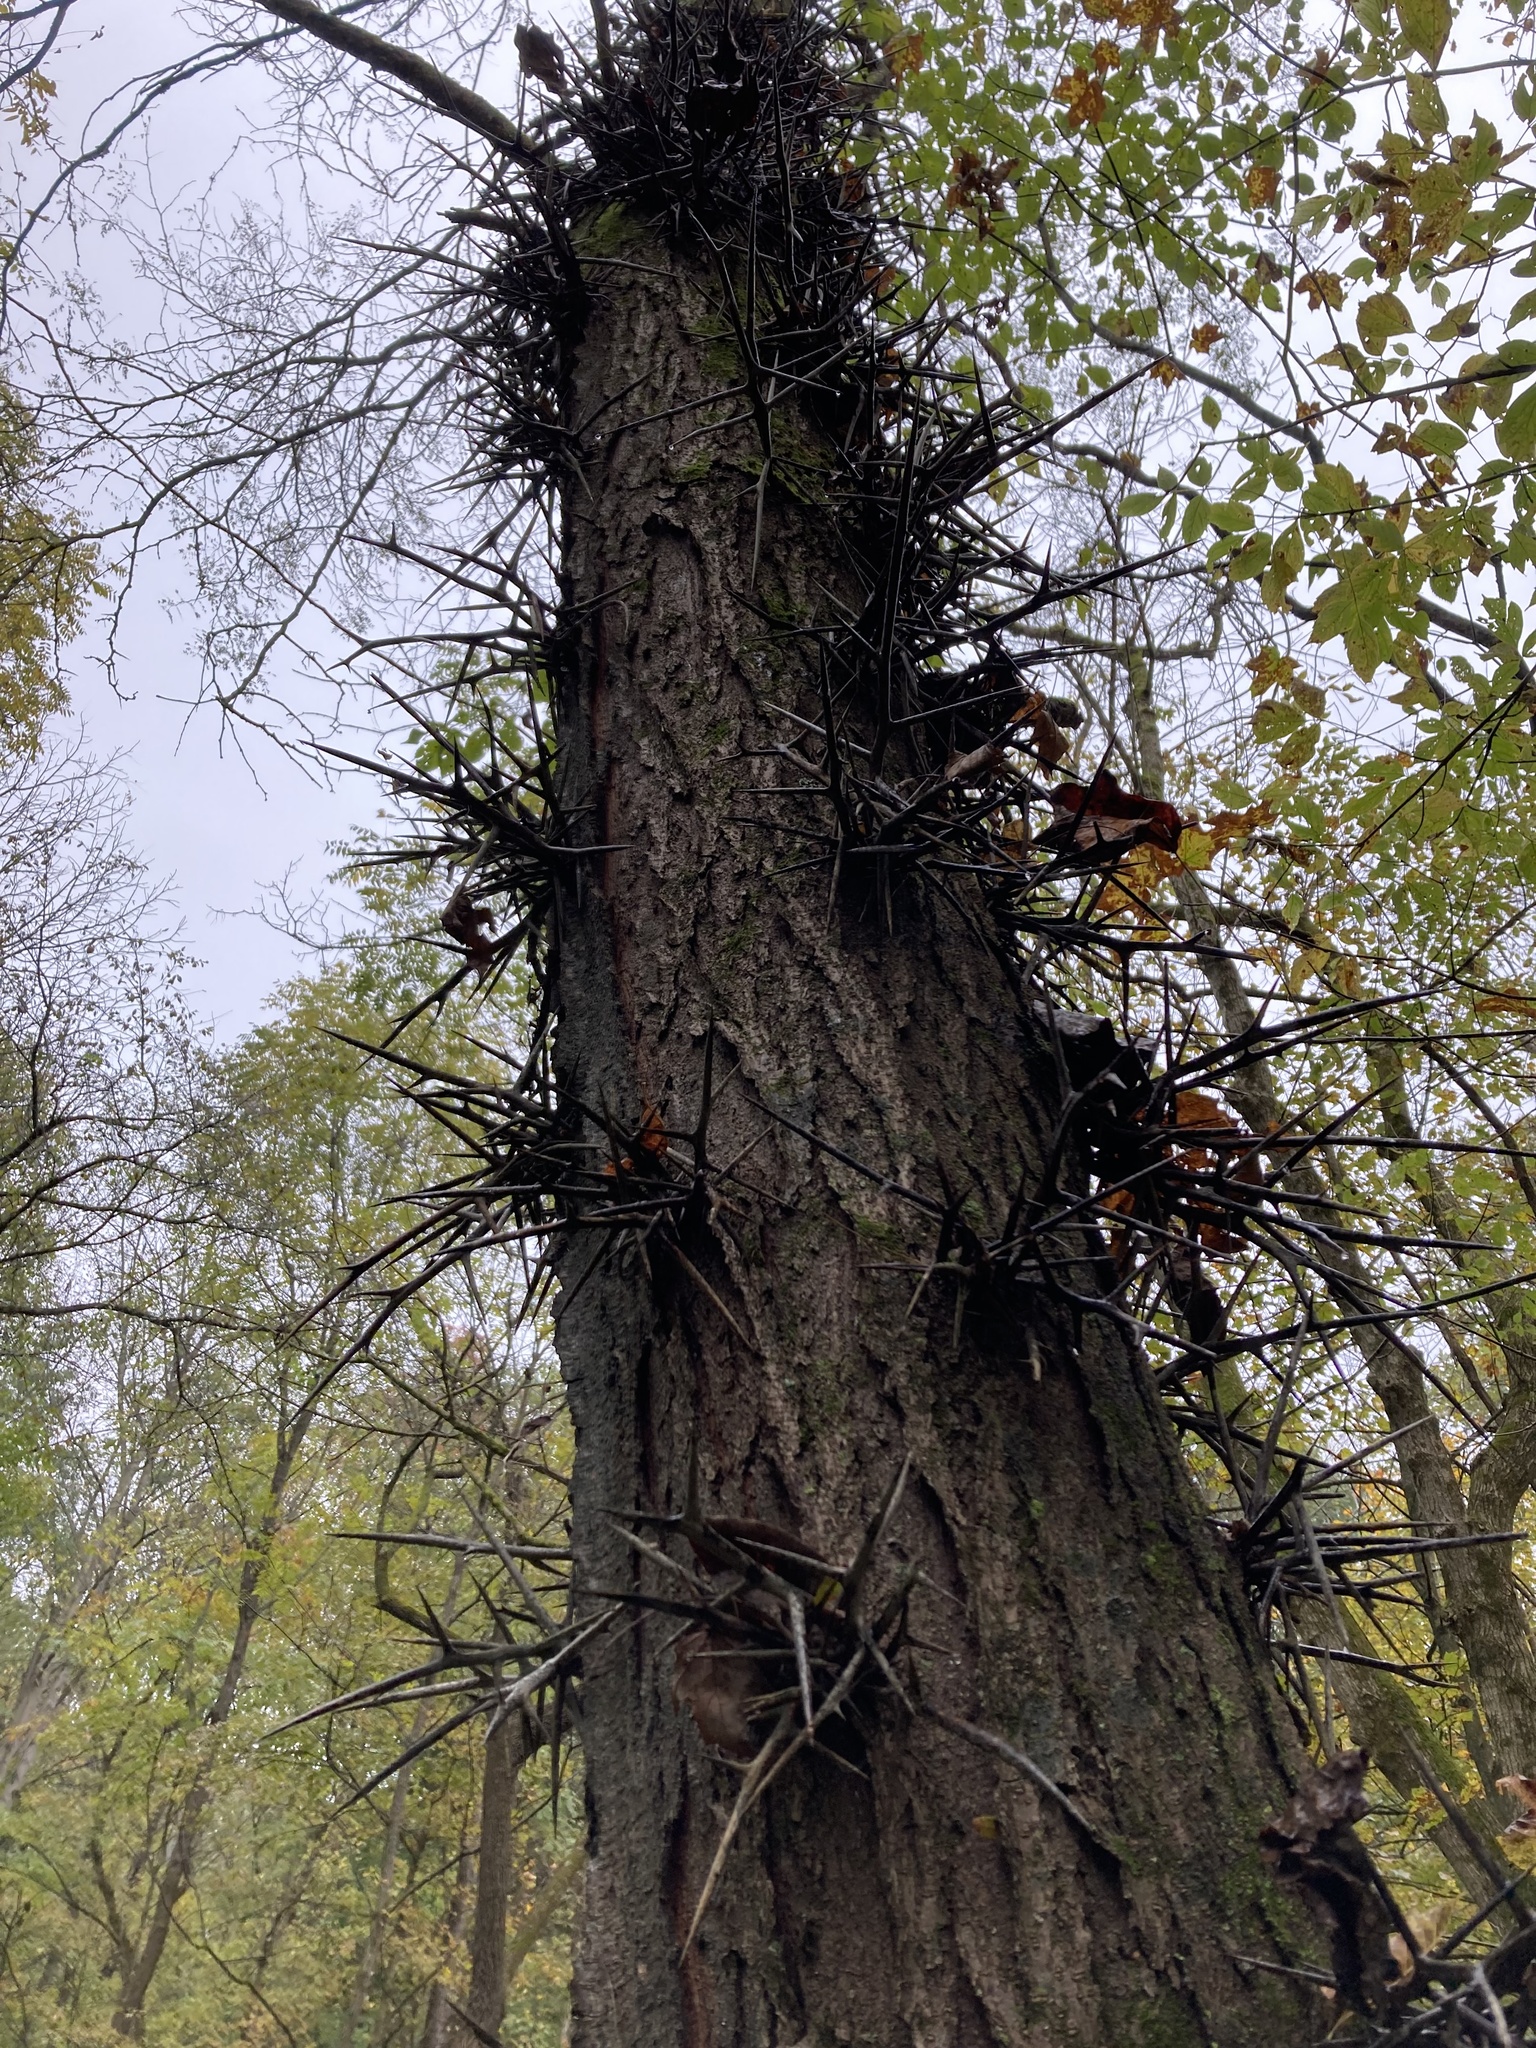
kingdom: Plantae
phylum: Tracheophyta
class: Magnoliopsida
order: Fabales
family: Fabaceae
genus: Gleditsia
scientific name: Gleditsia triacanthos
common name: Common honeylocust
